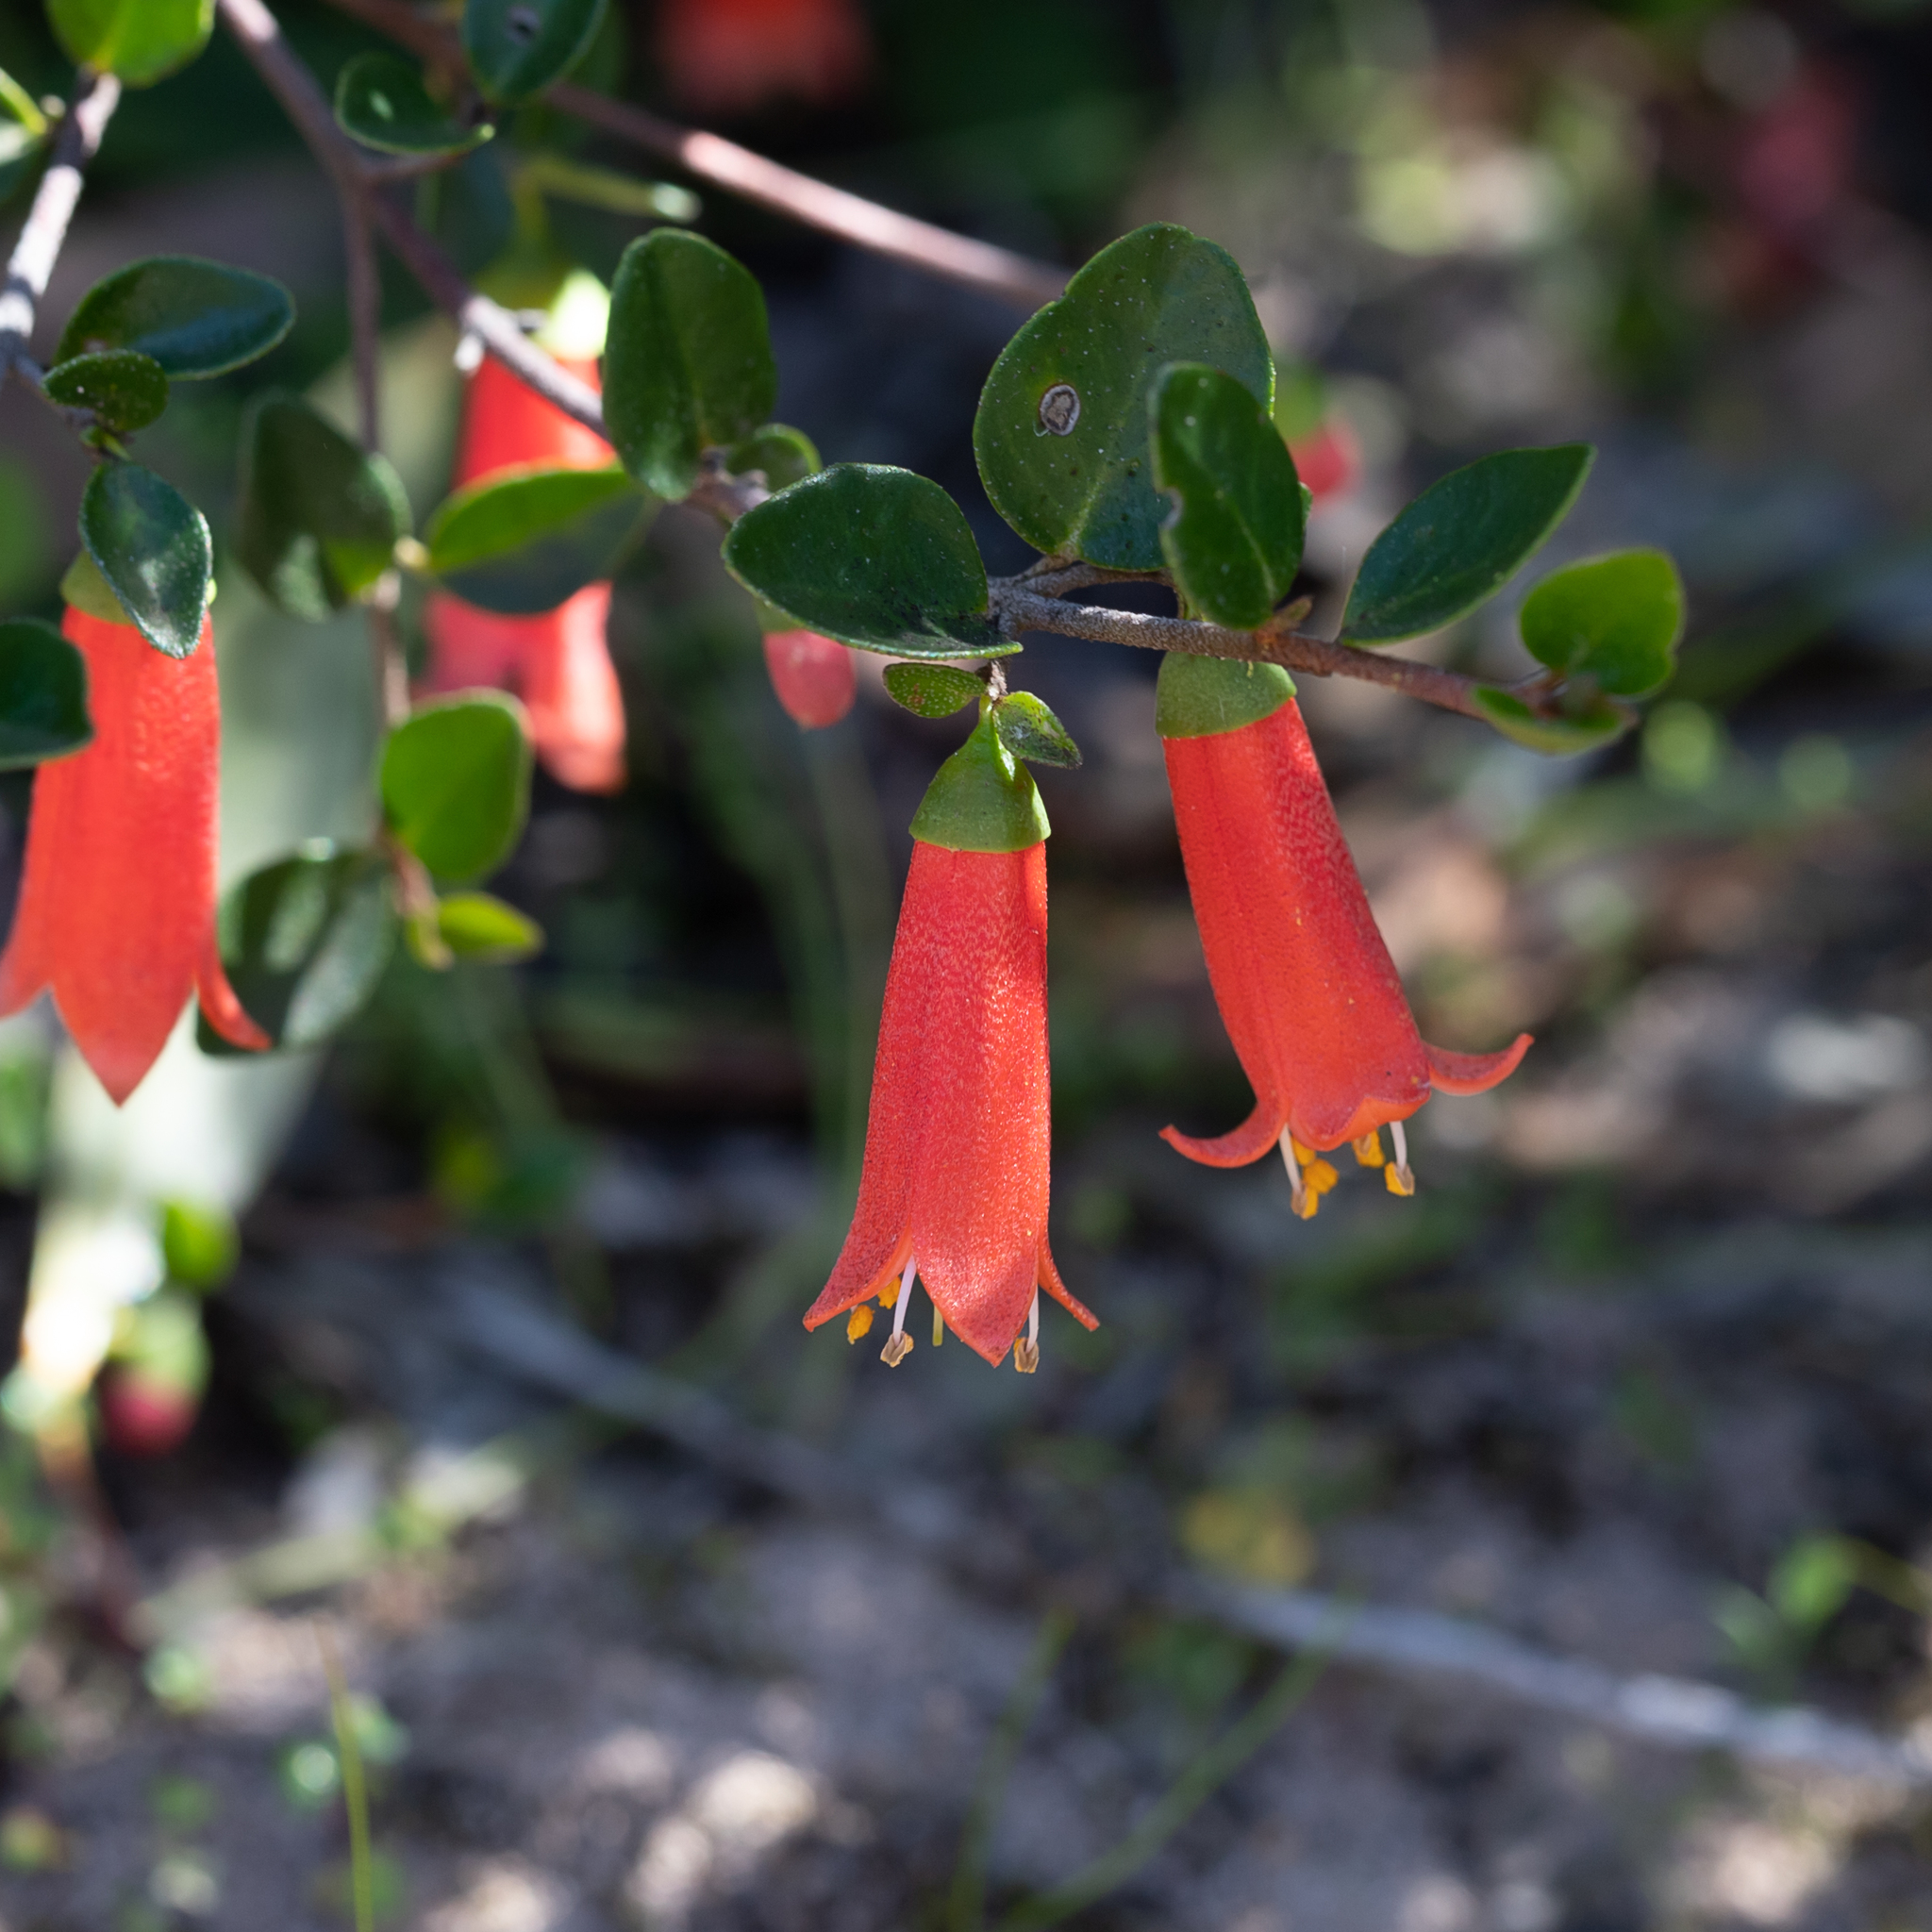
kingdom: Plantae
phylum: Tracheophyta
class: Magnoliopsida
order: Sapindales
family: Rutaceae
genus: Correa
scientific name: Correa pulchella
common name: Salmon correa
